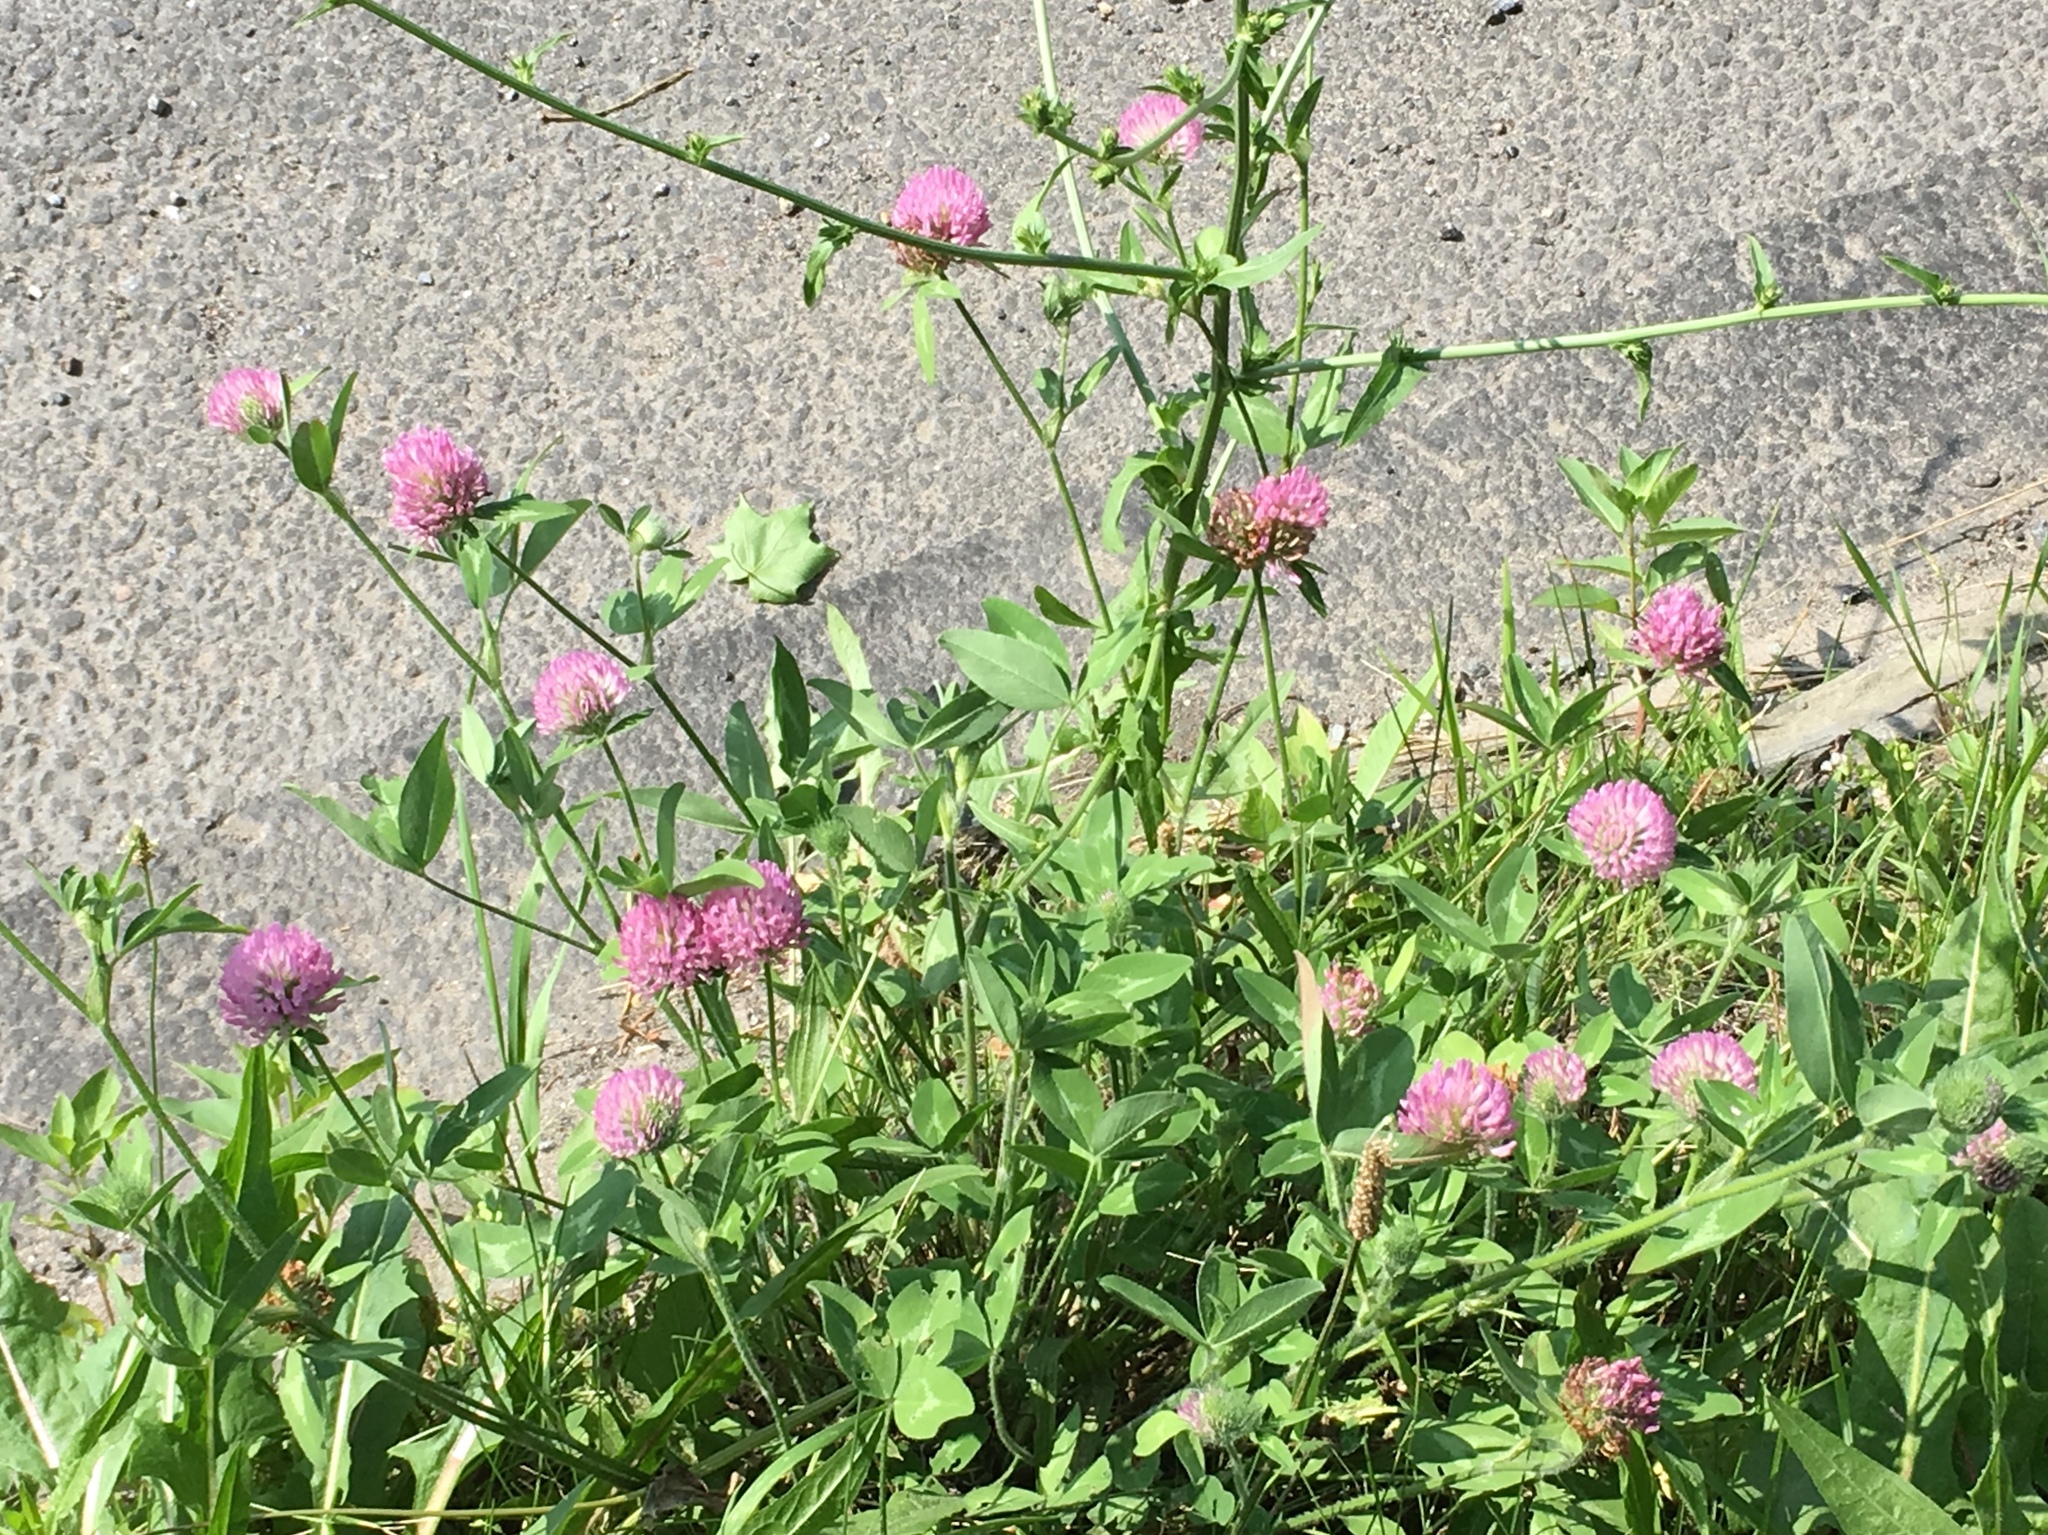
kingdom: Plantae
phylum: Tracheophyta
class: Magnoliopsida
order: Fabales
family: Fabaceae
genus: Trifolium
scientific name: Trifolium pratense
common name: Red clover
